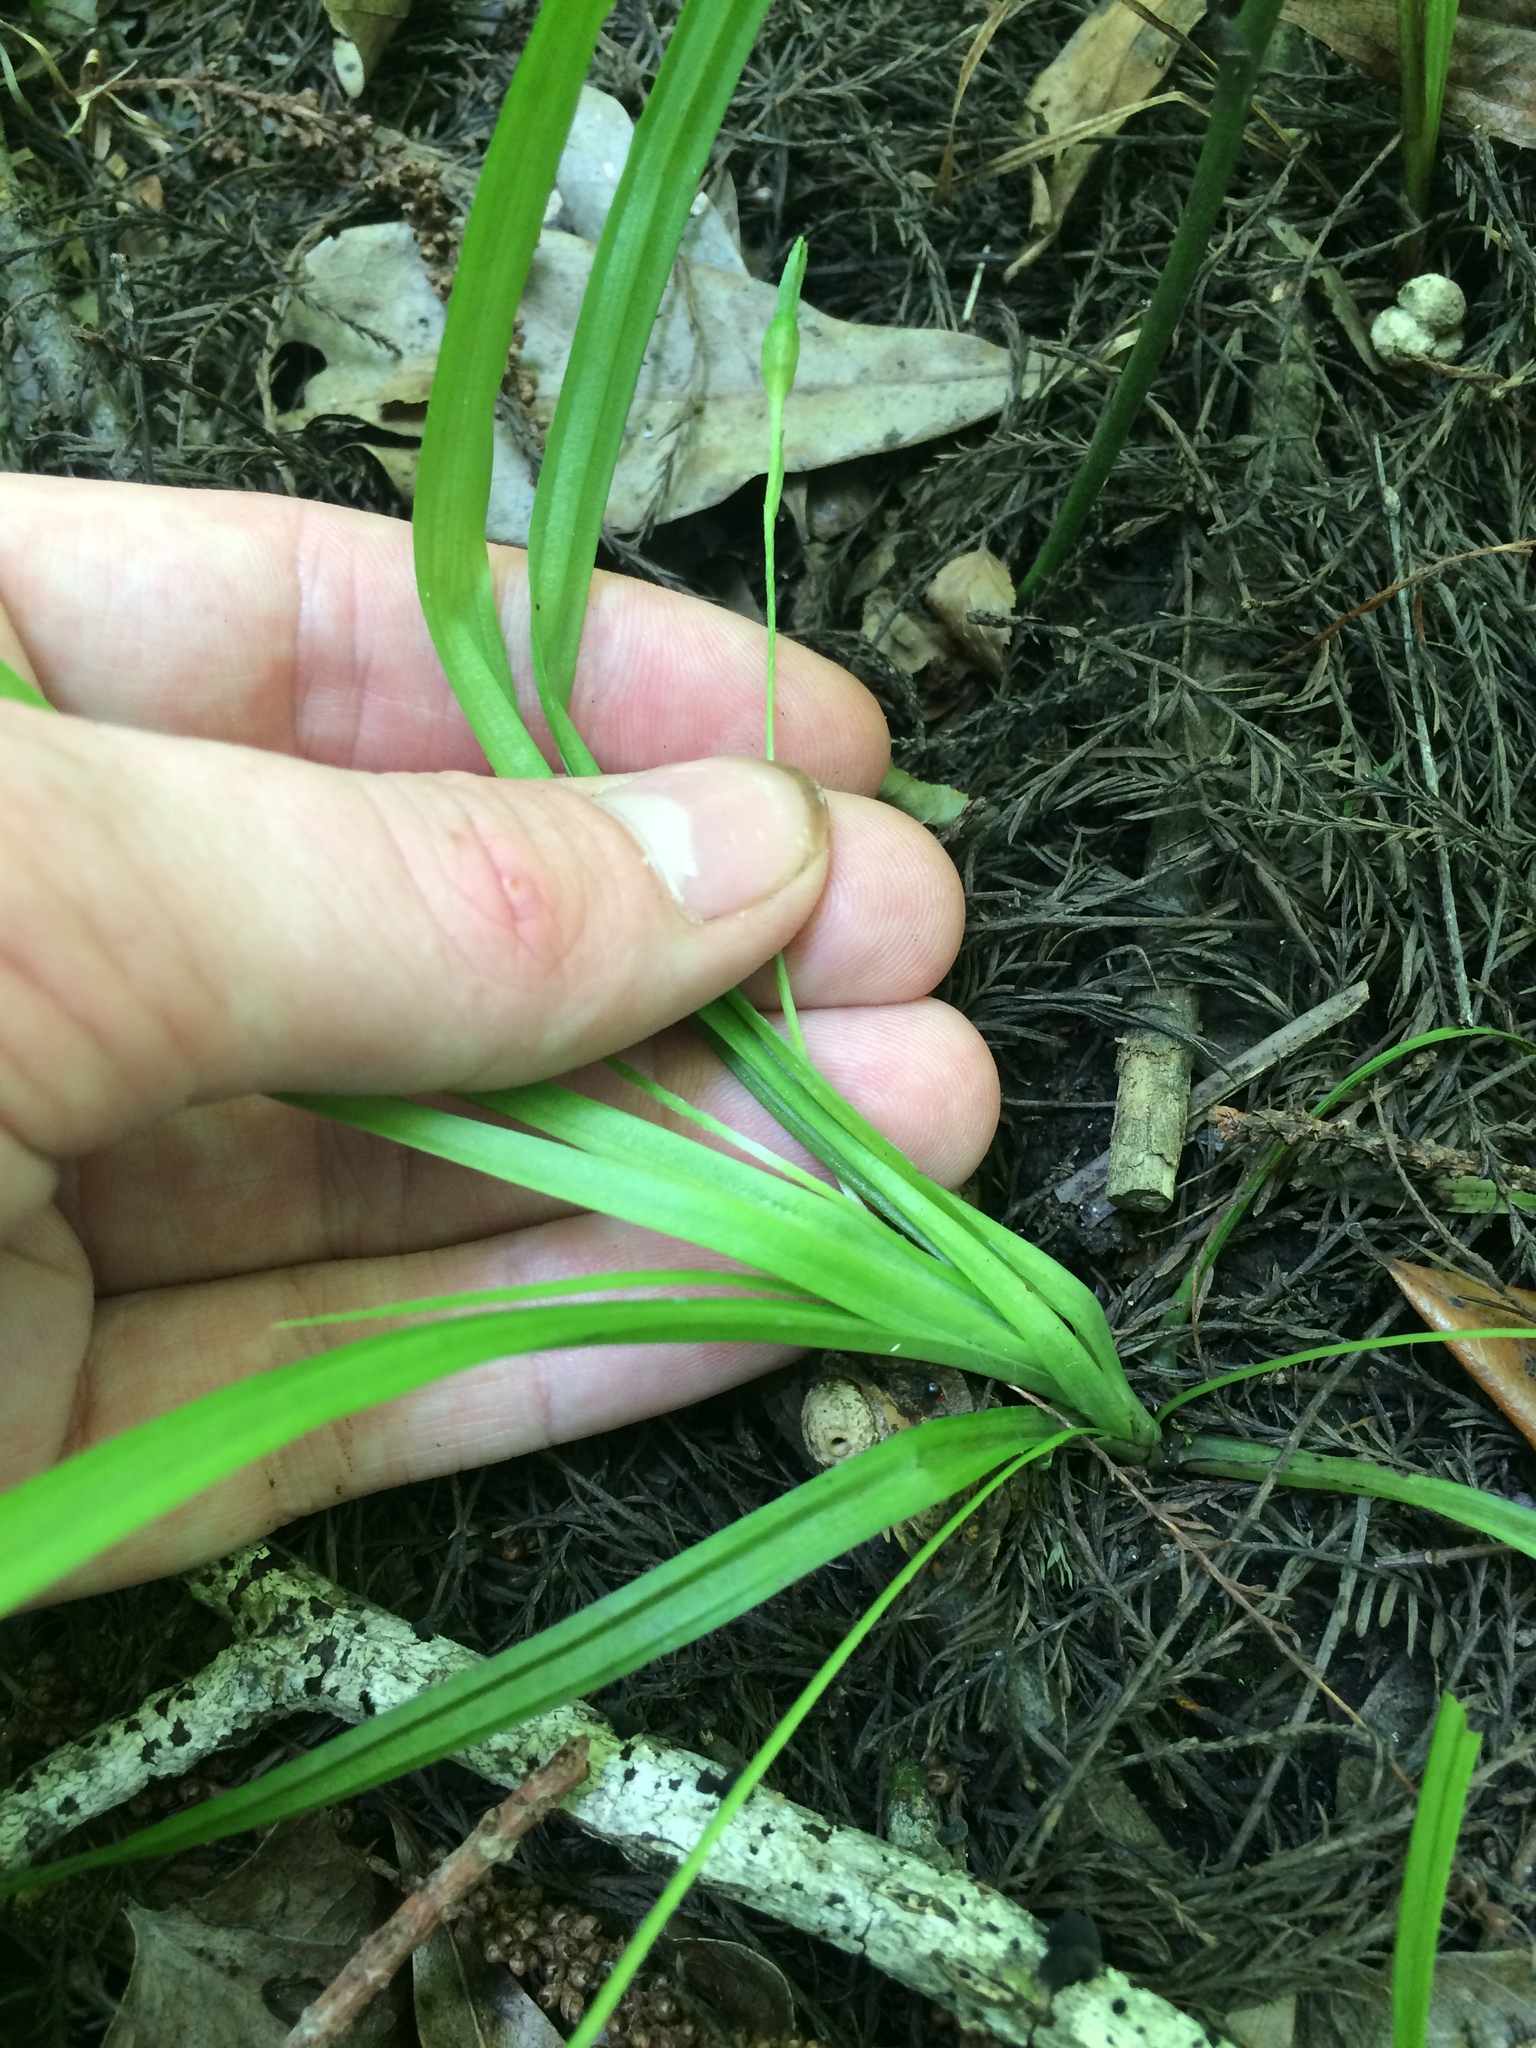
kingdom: Plantae
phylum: Tracheophyta
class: Liliopsida
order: Asparagales
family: Hypoxidaceae
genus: Hypoxis
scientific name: Hypoxis curtissii
